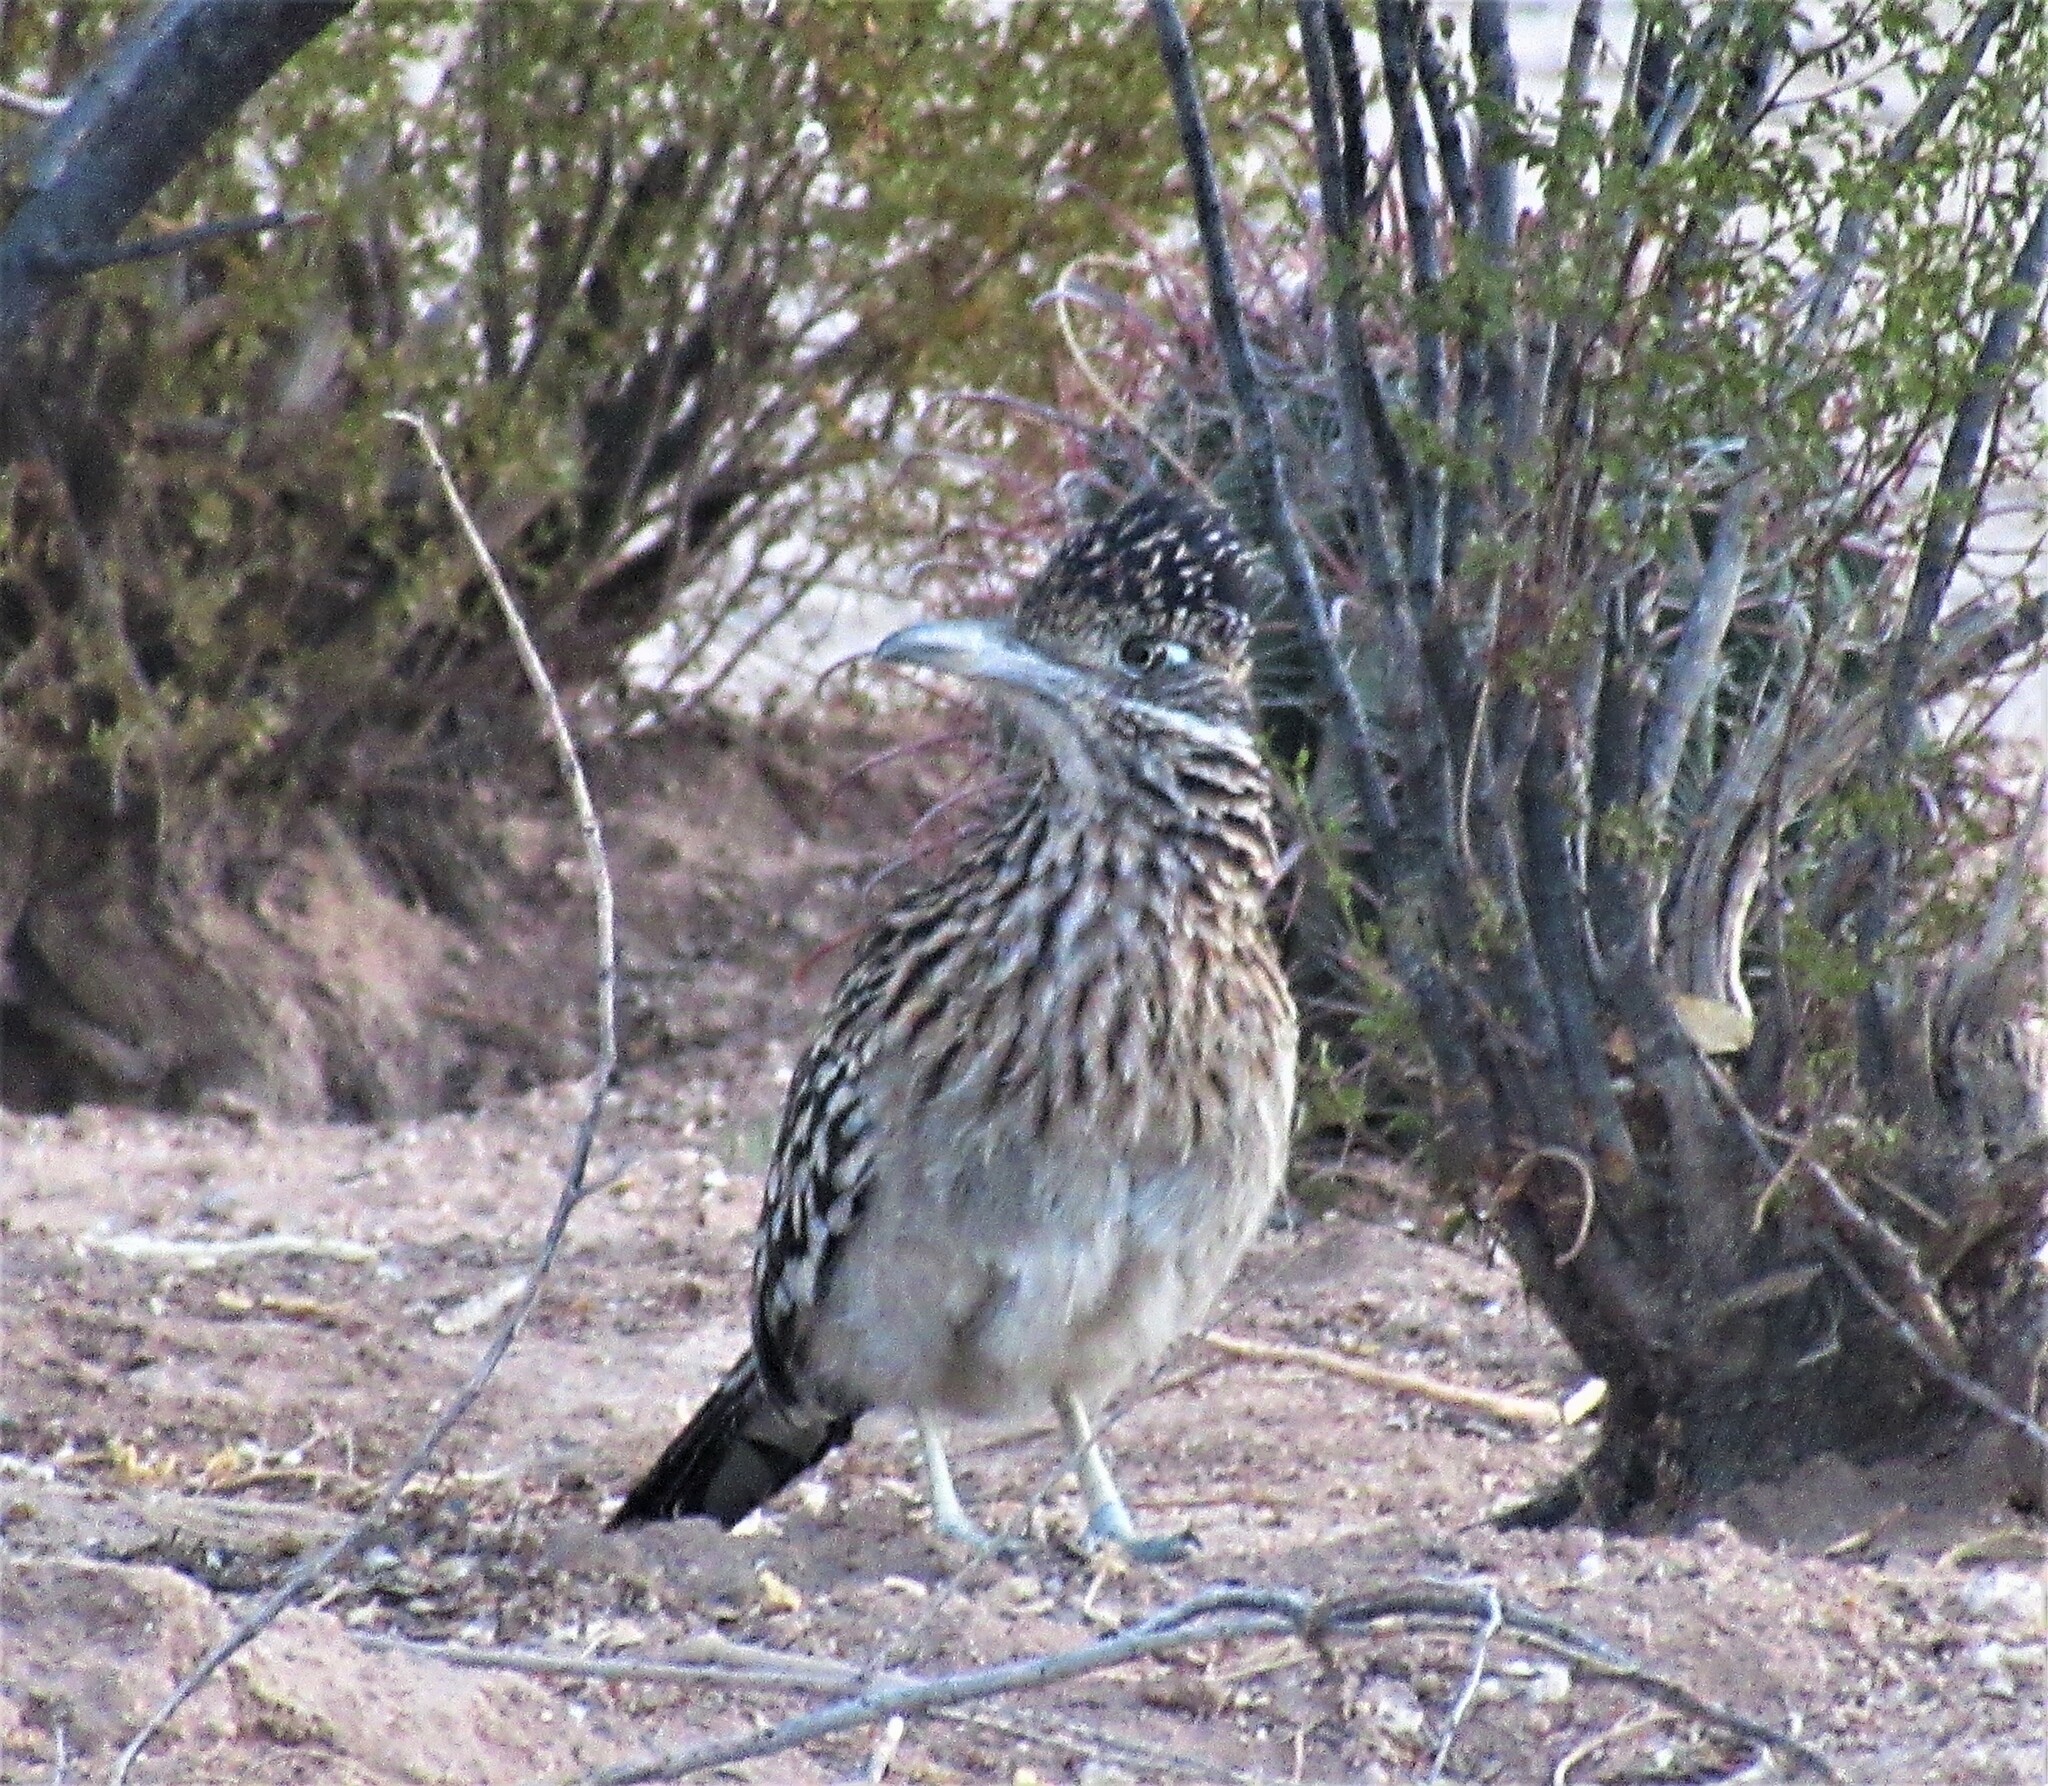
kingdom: Animalia
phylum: Chordata
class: Aves
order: Cuculiformes
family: Cuculidae
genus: Geococcyx
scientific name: Geococcyx californianus
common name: Greater roadrunner
